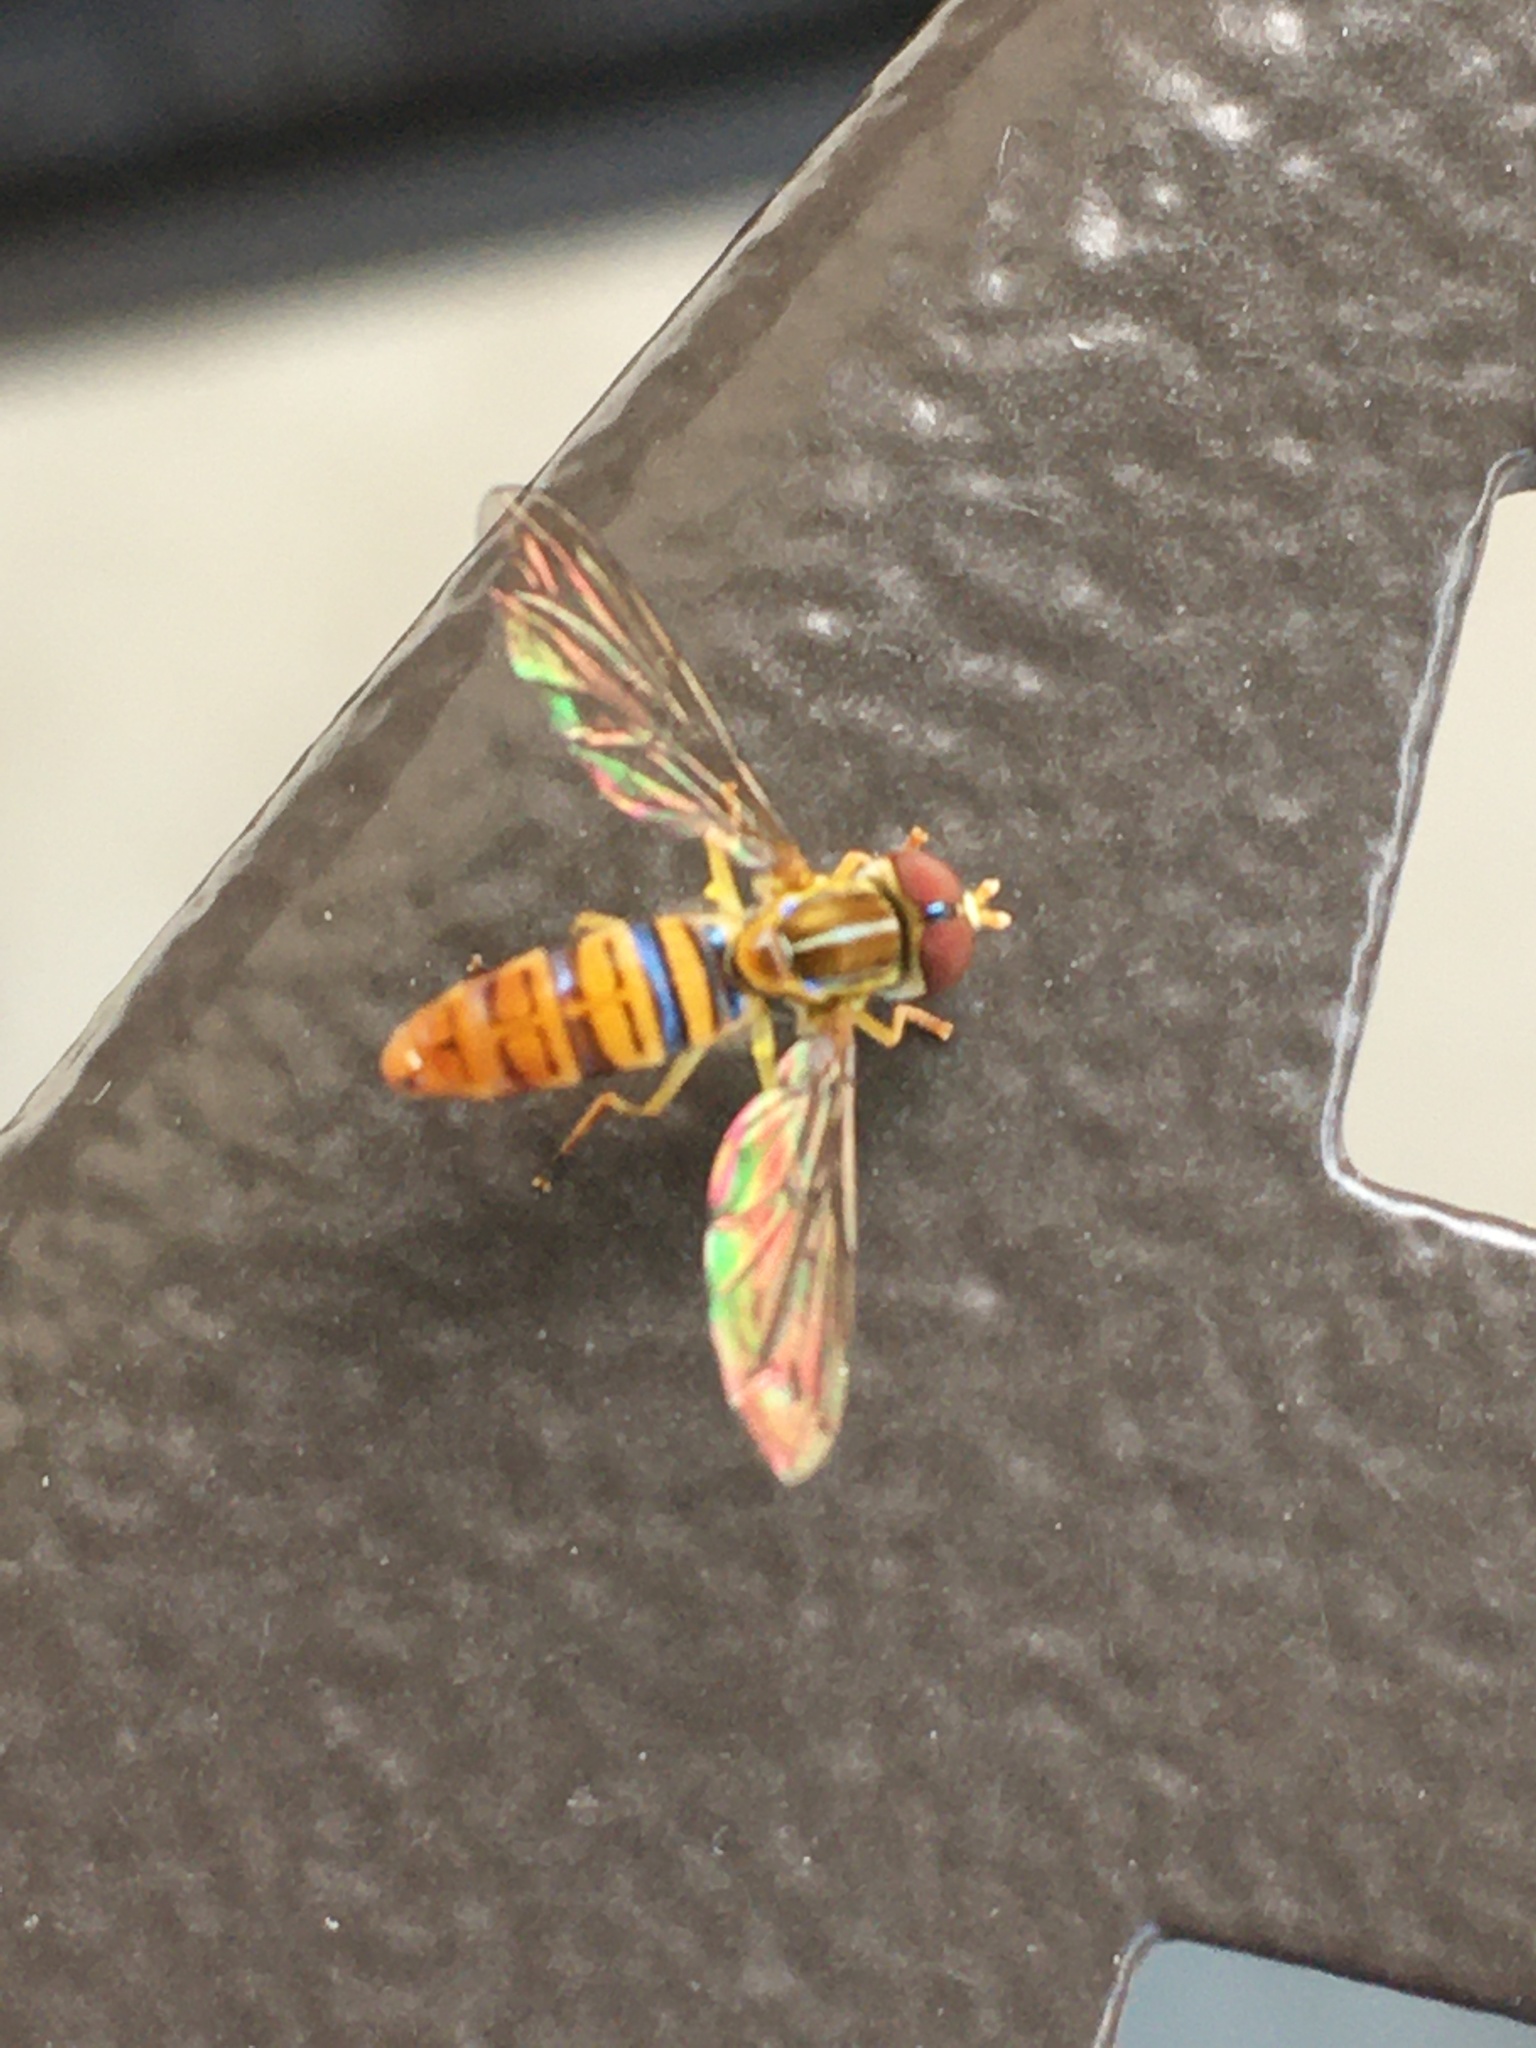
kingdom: Animalia
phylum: Arthropoda
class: Insecta
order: Diptera
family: Syrphidae
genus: Toxomerus
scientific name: Toxomerus politus
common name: Maize calligrapher
